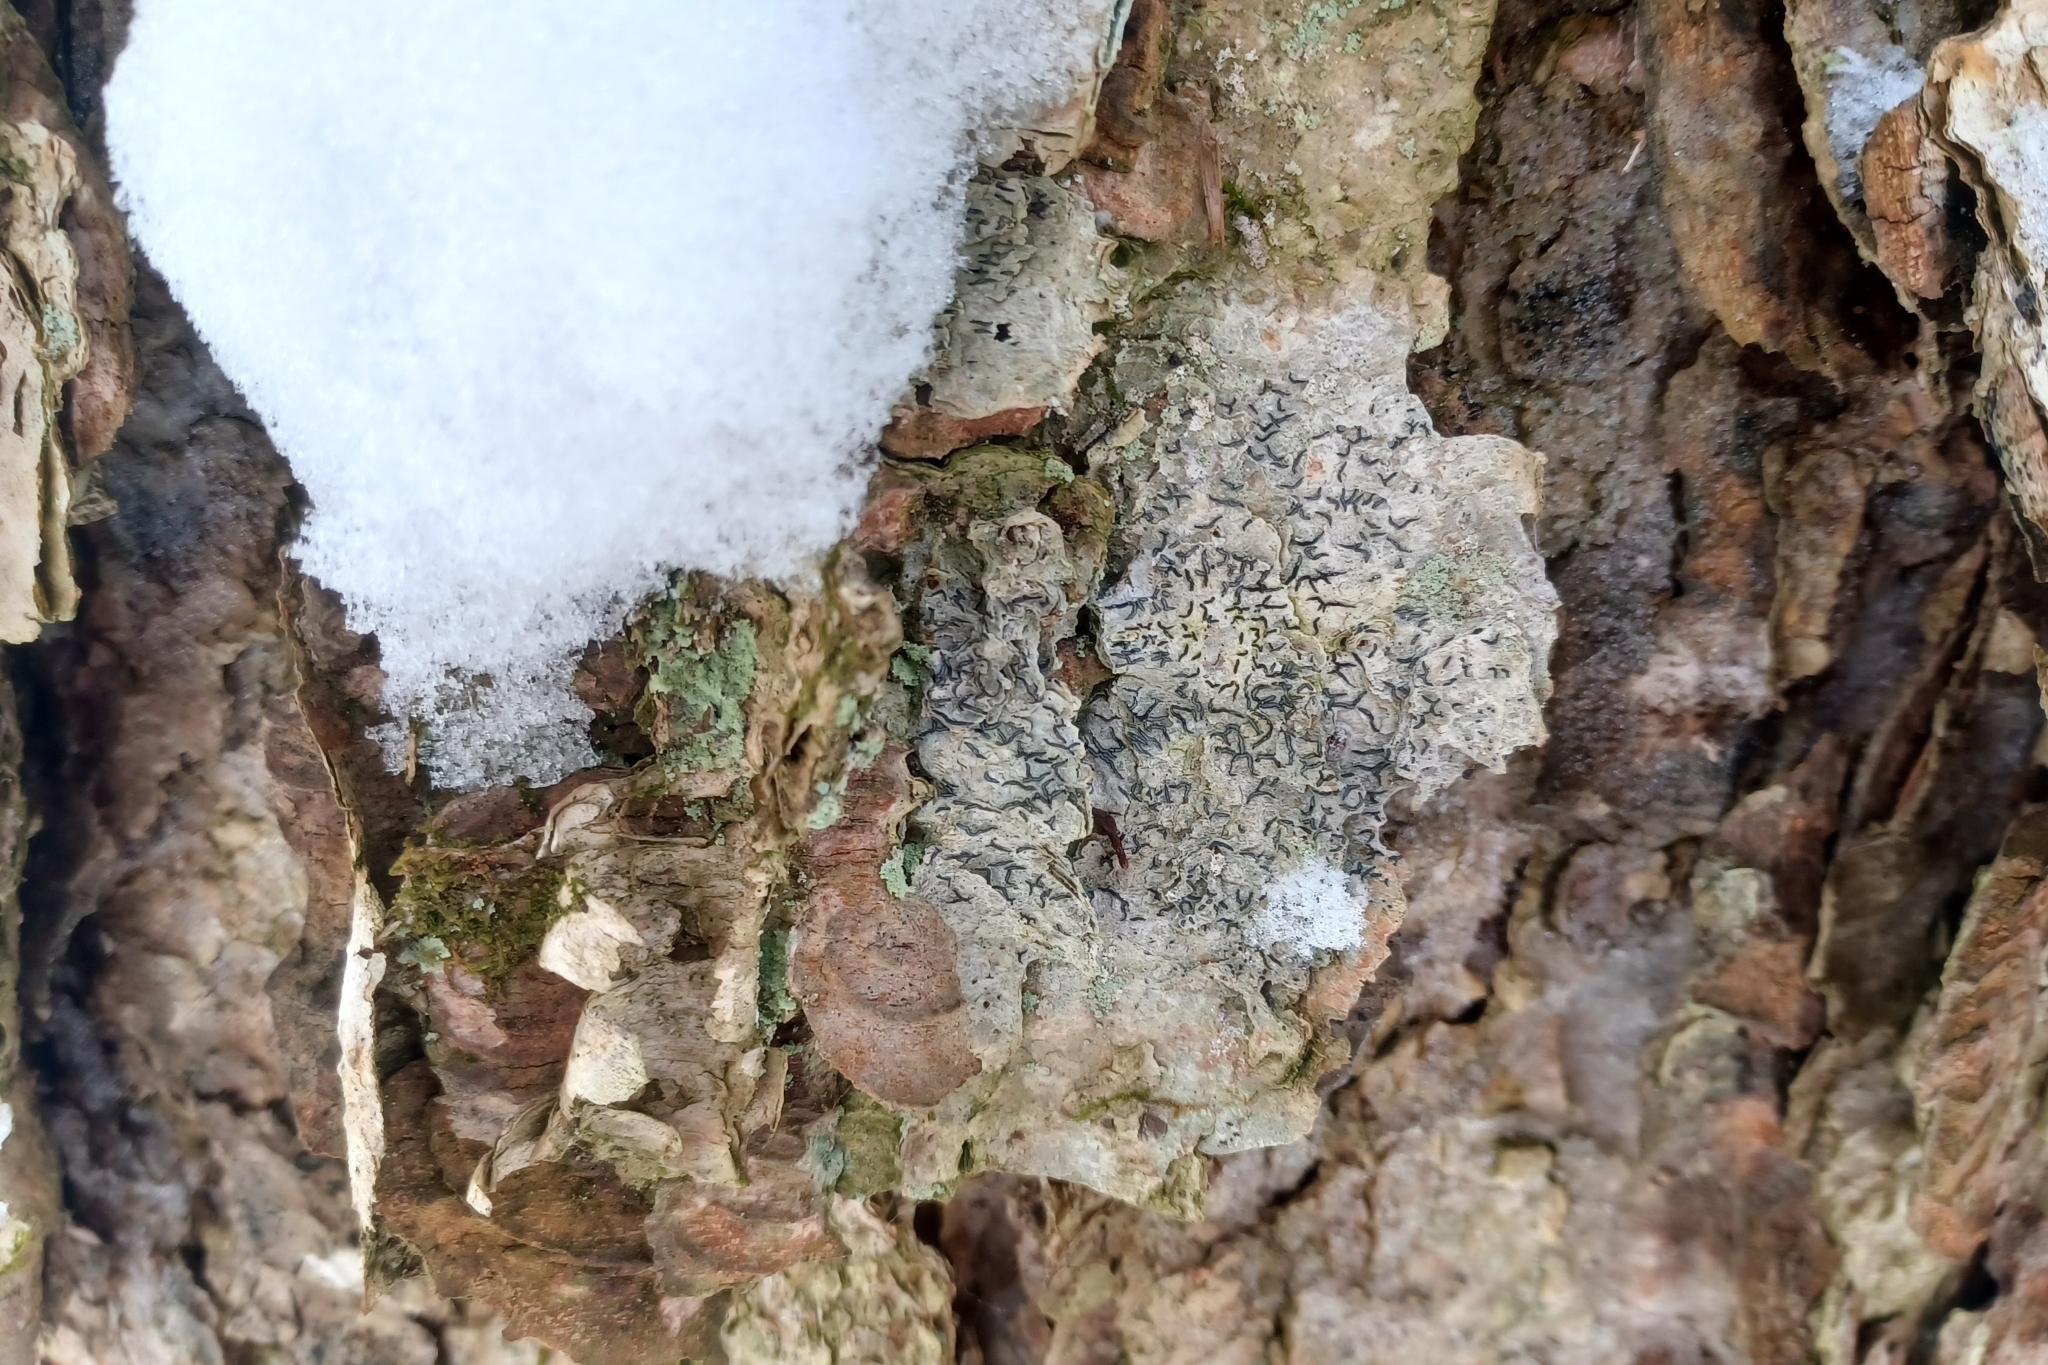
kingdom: Fungi
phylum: Ascomycota
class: Lecanoromycetes
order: Ostropales
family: Graphidaceae
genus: Graphis
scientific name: Graphis scripta
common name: Script lichen
